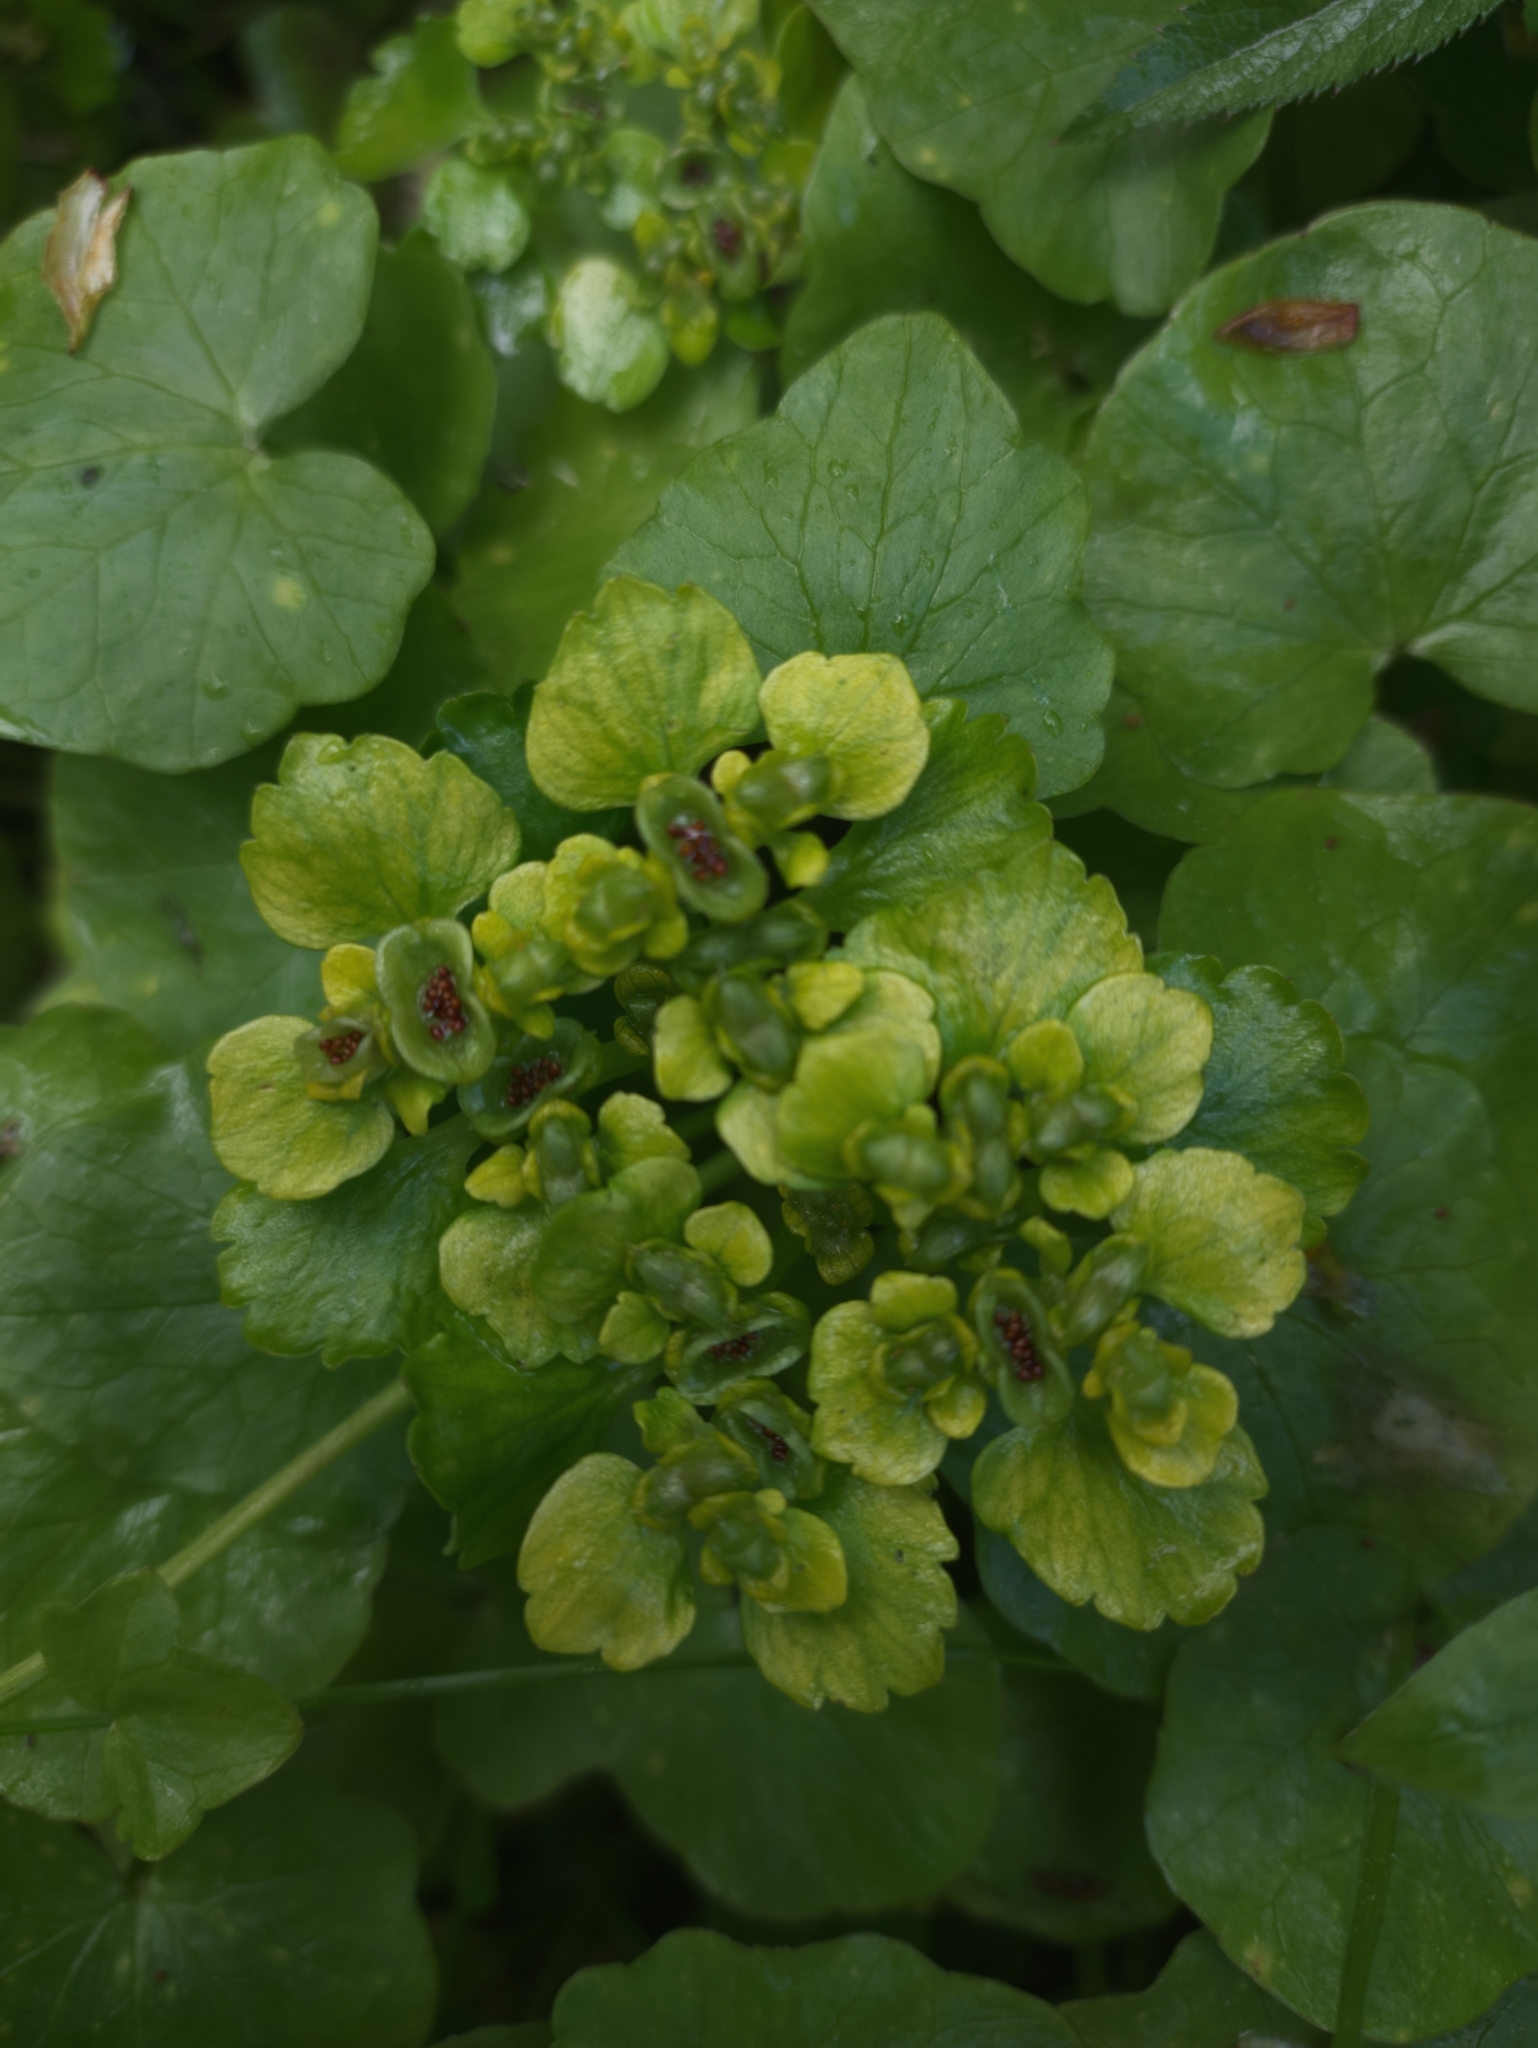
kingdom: Plantae
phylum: Tracheophyta
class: Magnoliopsida
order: Saxifragales
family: Saxifragaceae
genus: Chrysosplenium
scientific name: Chrysosplenium alternifolium
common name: Alternate-leaved golden-saxifrage
